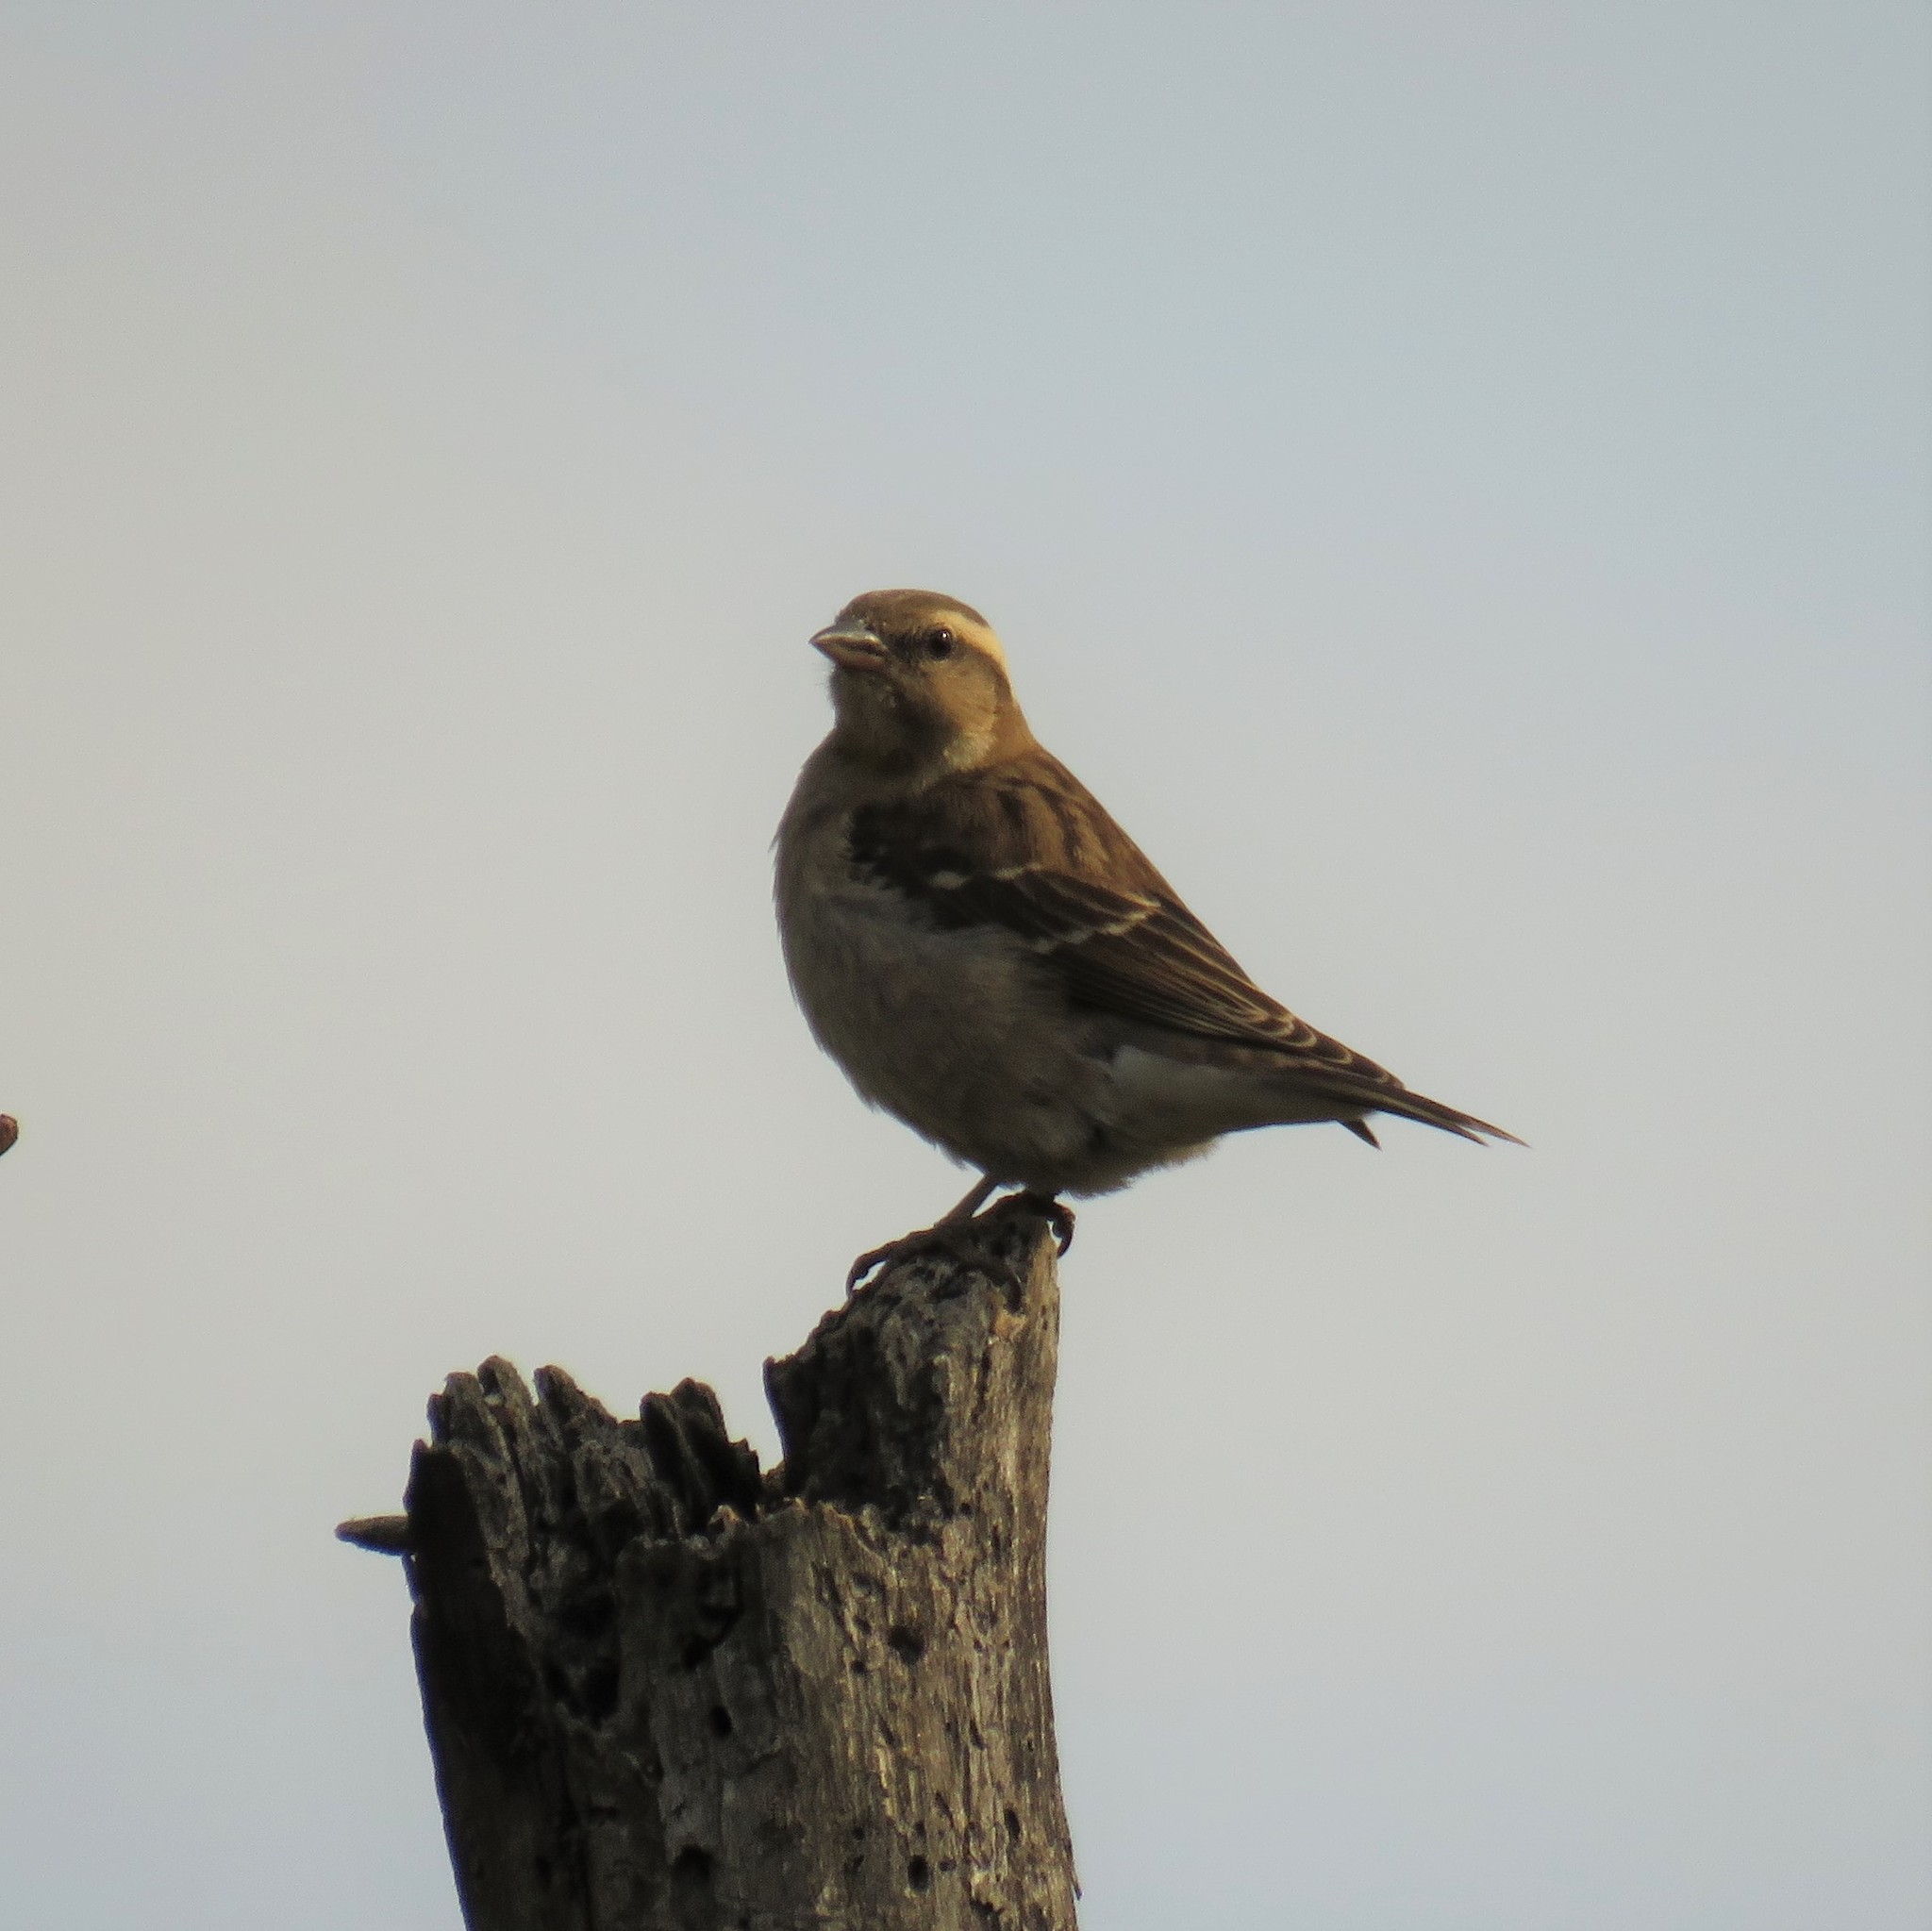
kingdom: Animalia
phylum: Chordata
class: Aves
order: Passeriformes
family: Passeridae
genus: Gymnoris
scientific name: Gymnoris superciliaris
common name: Yellow-throated petronia
